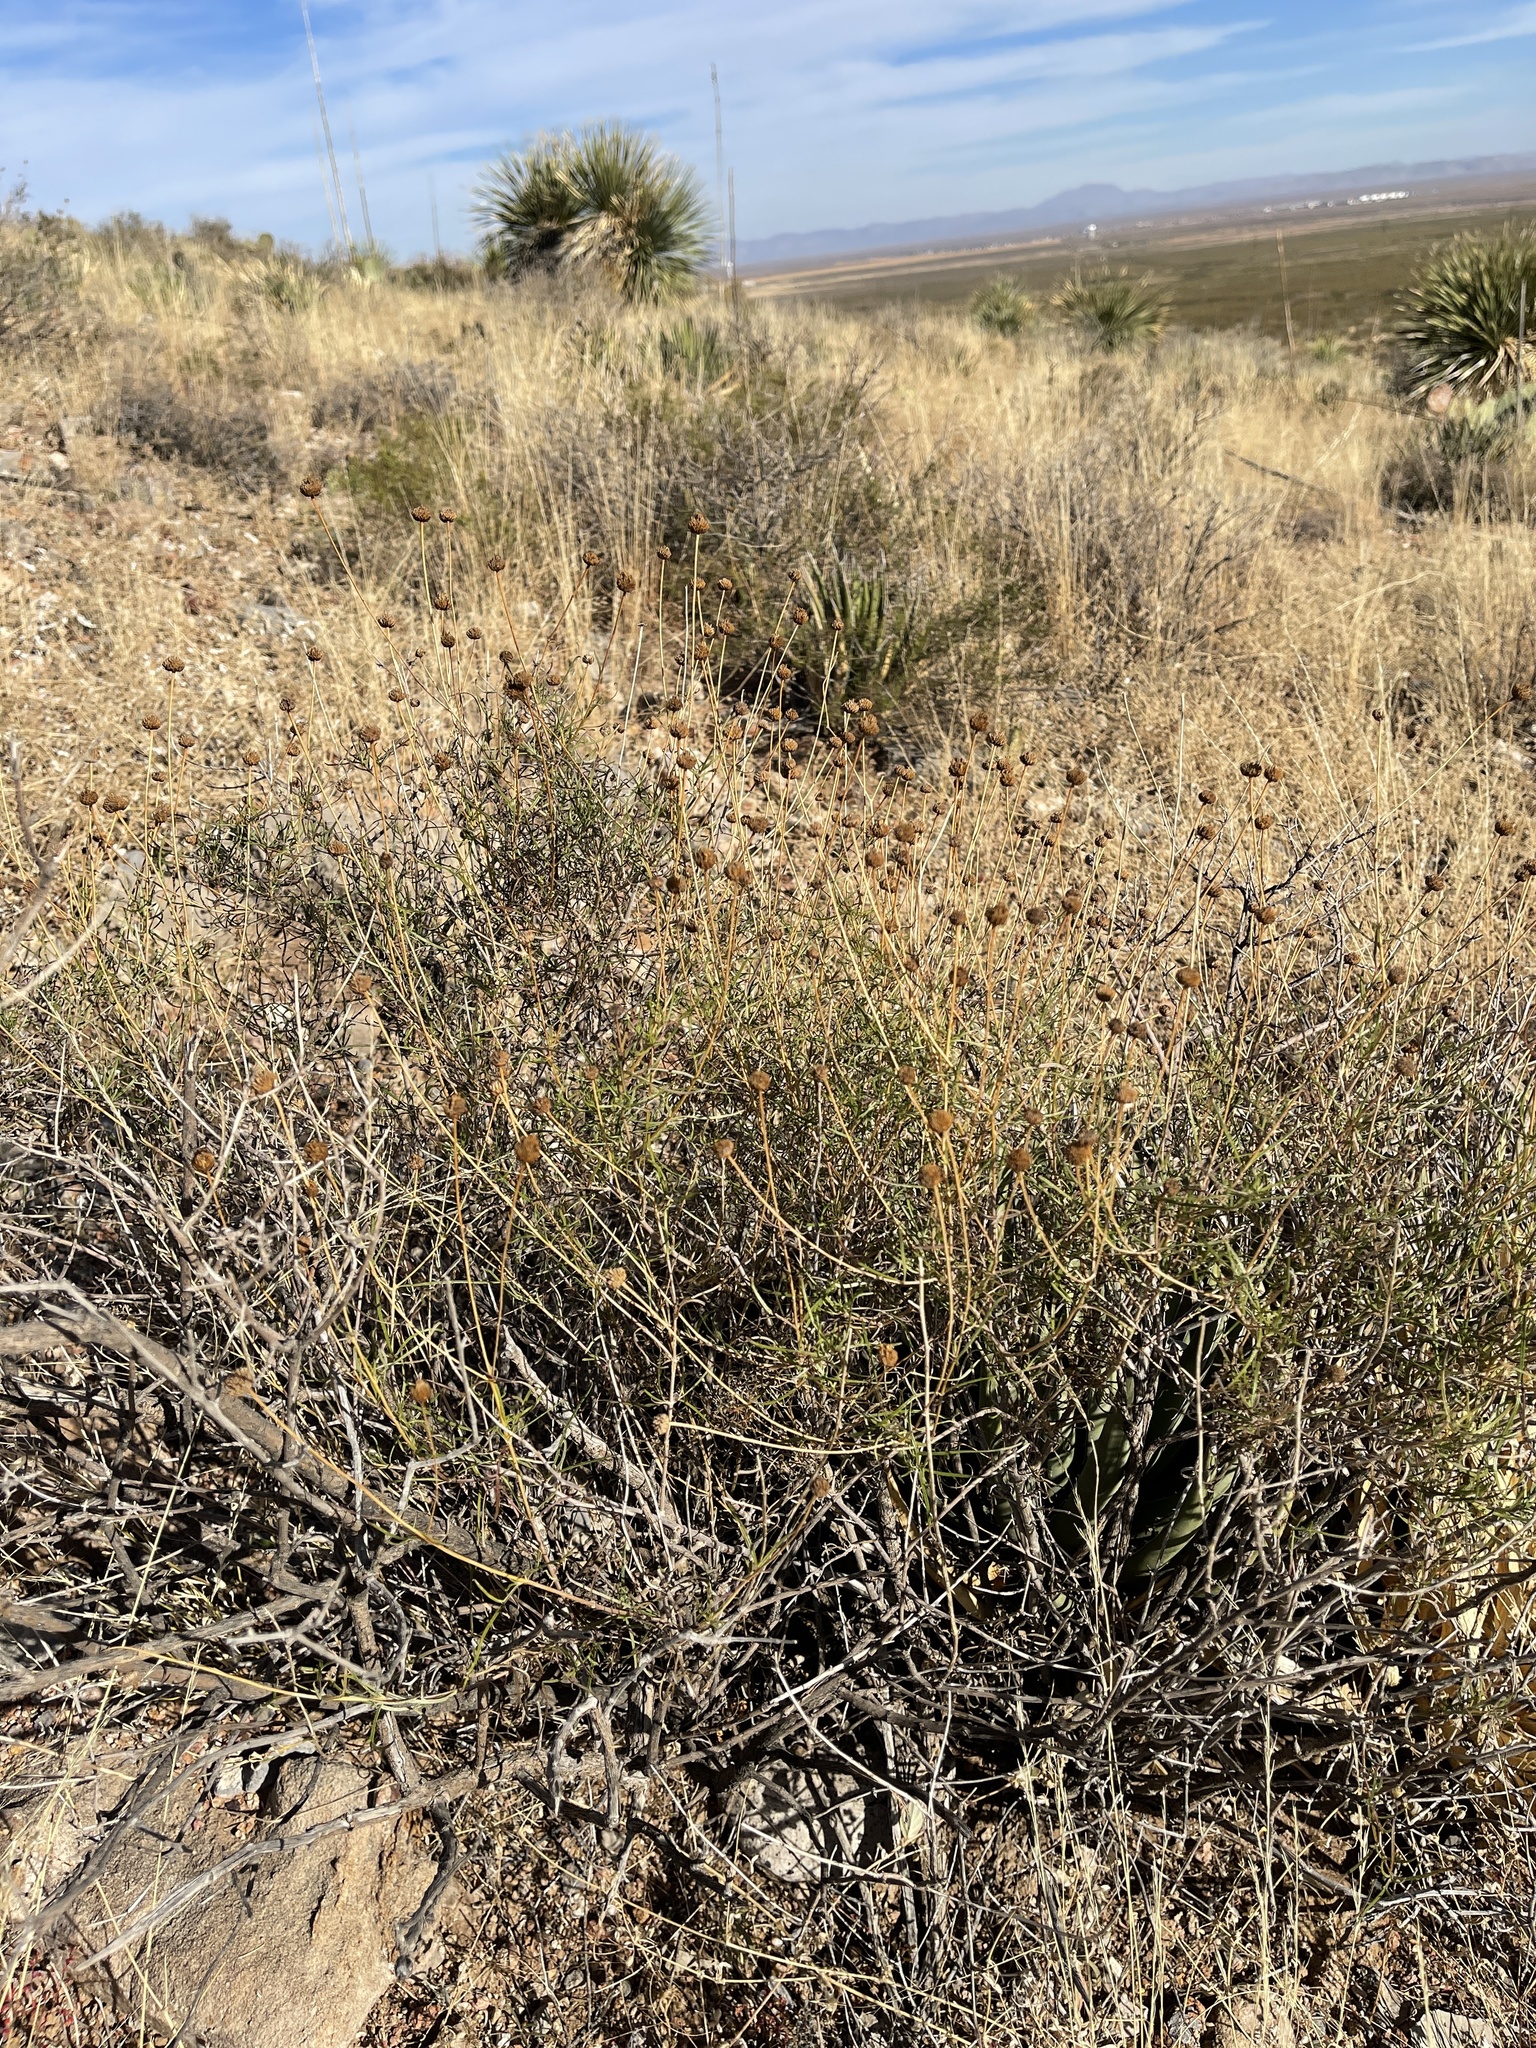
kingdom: Plantae
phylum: Tracheophyta
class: Magnoliopsida
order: Asterales
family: Asteraceae
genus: Sidneya
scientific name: Sidneya tenuifolia
